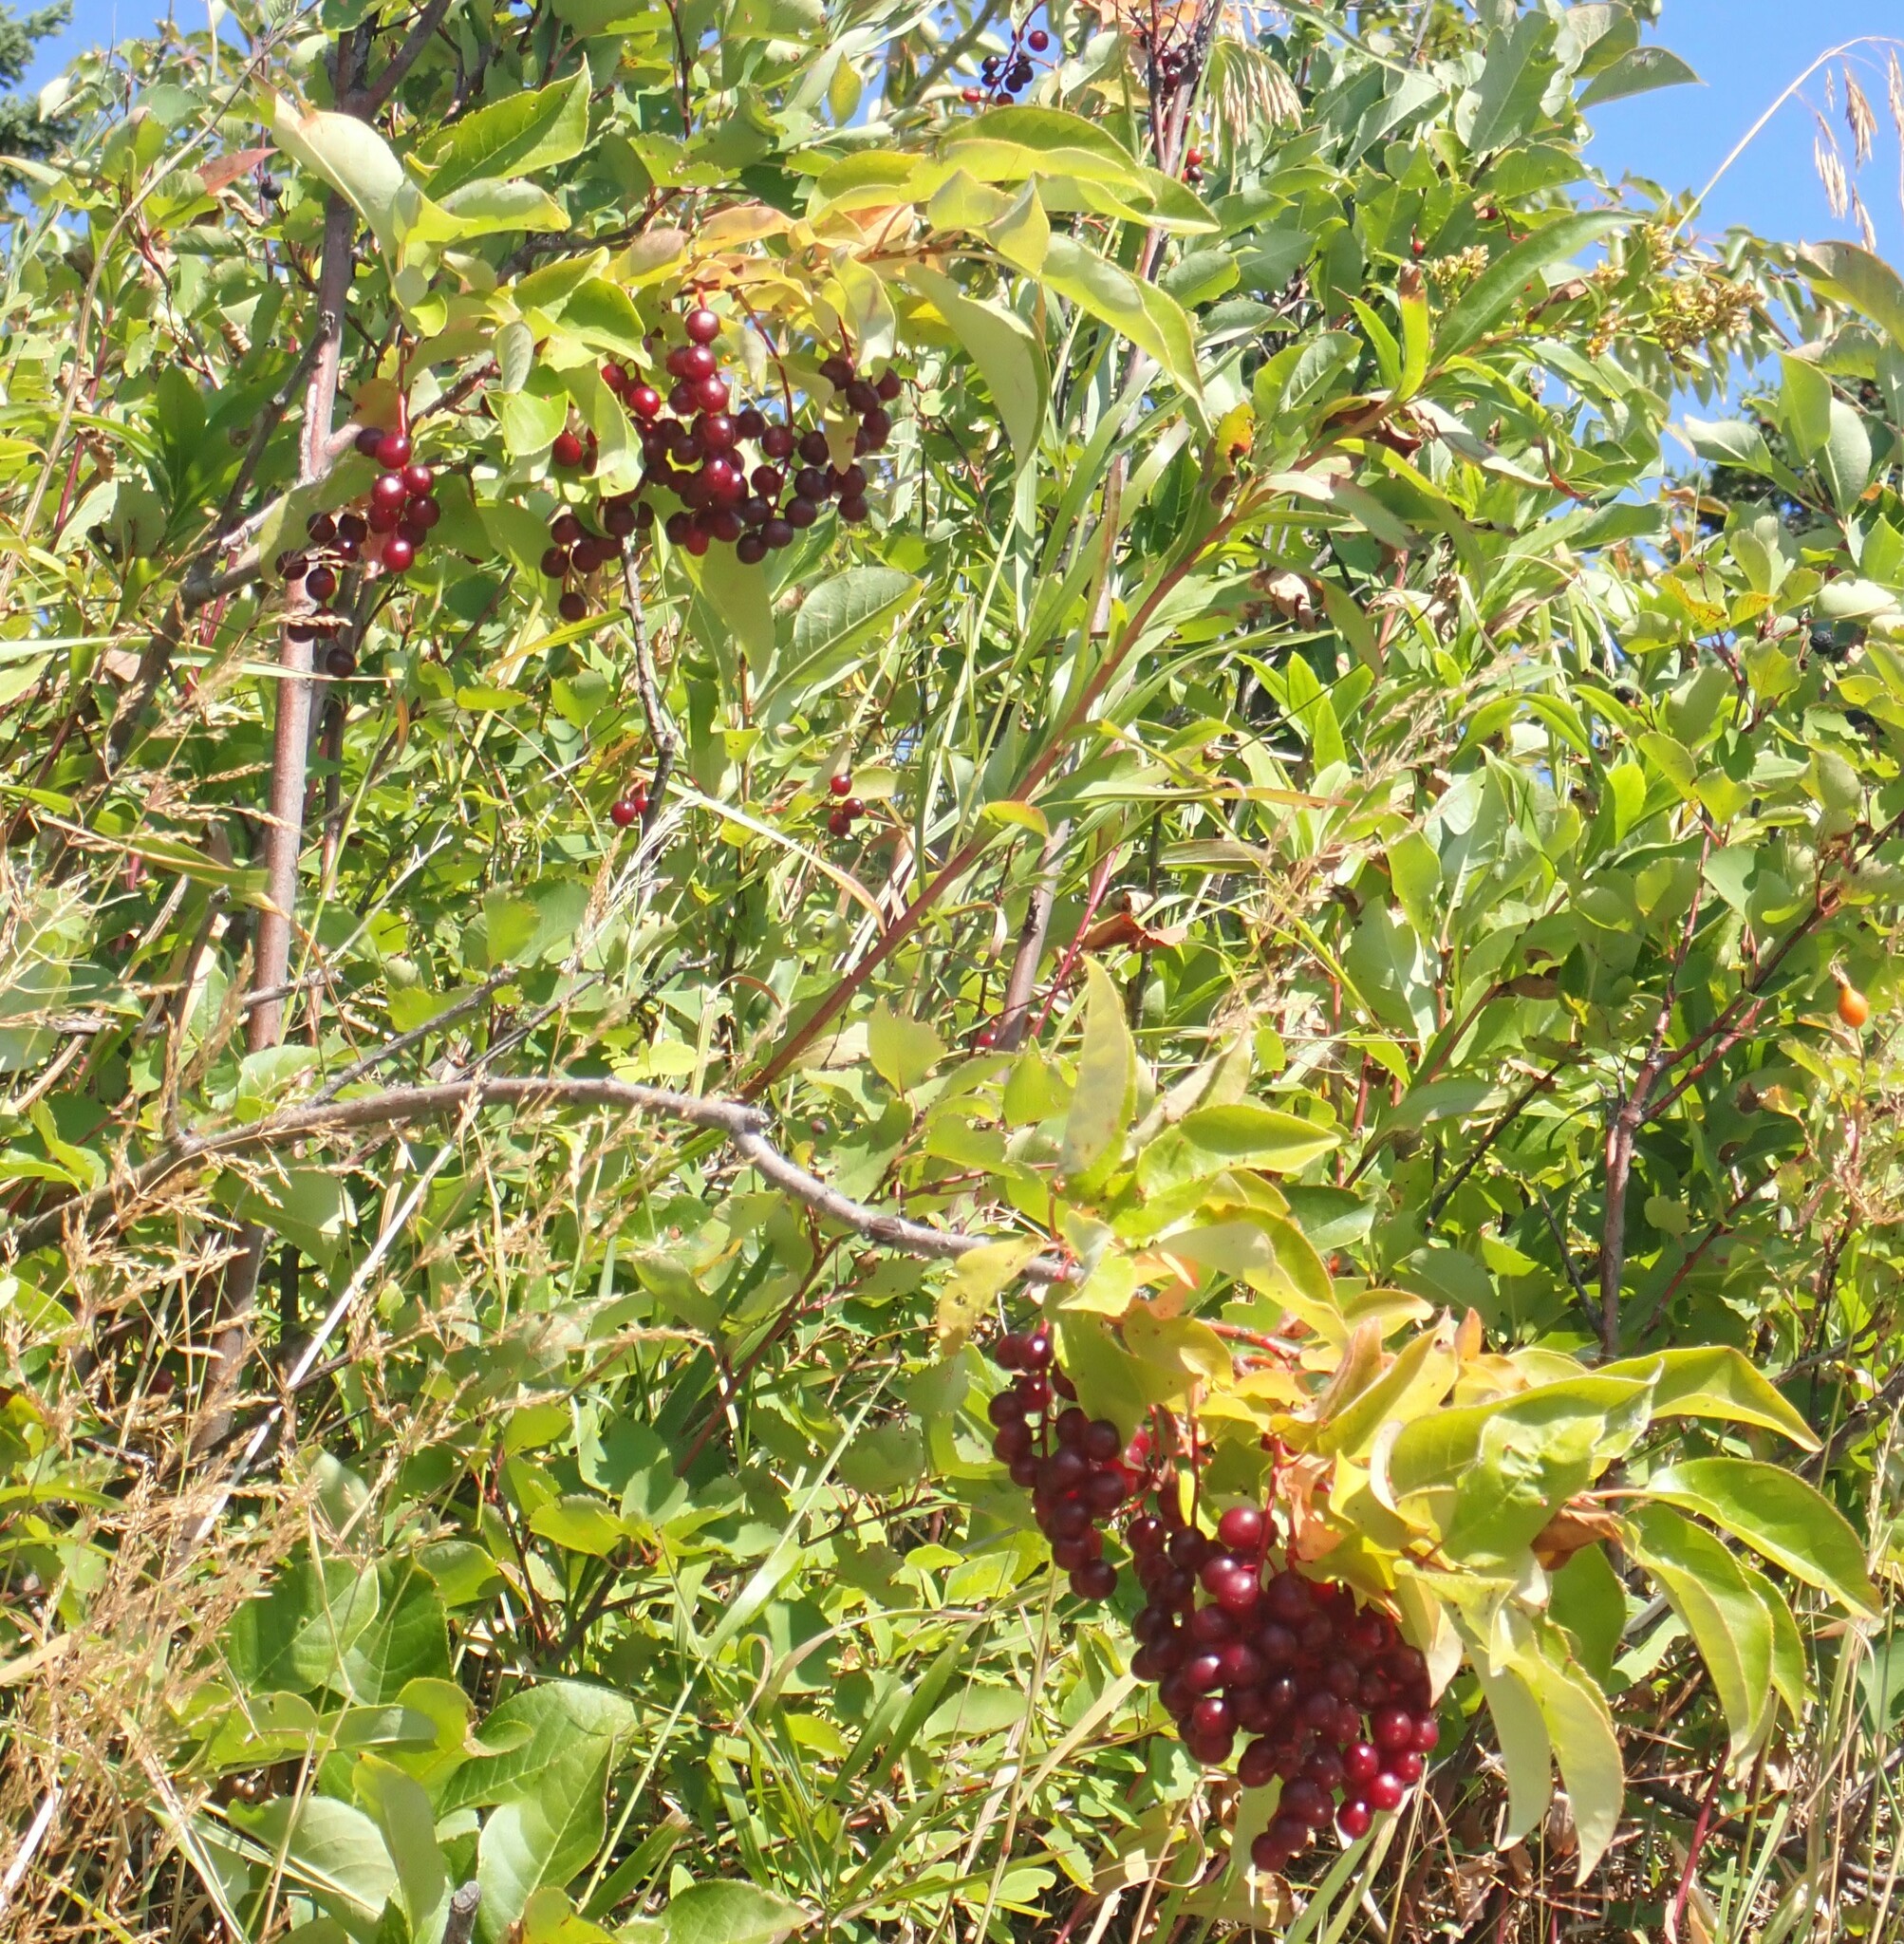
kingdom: Plantae
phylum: Tracheophyta
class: Magnoliopsida
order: Rosales
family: Rosaceae
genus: Prunus
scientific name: Prunus virginiana
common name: Chokecherry
